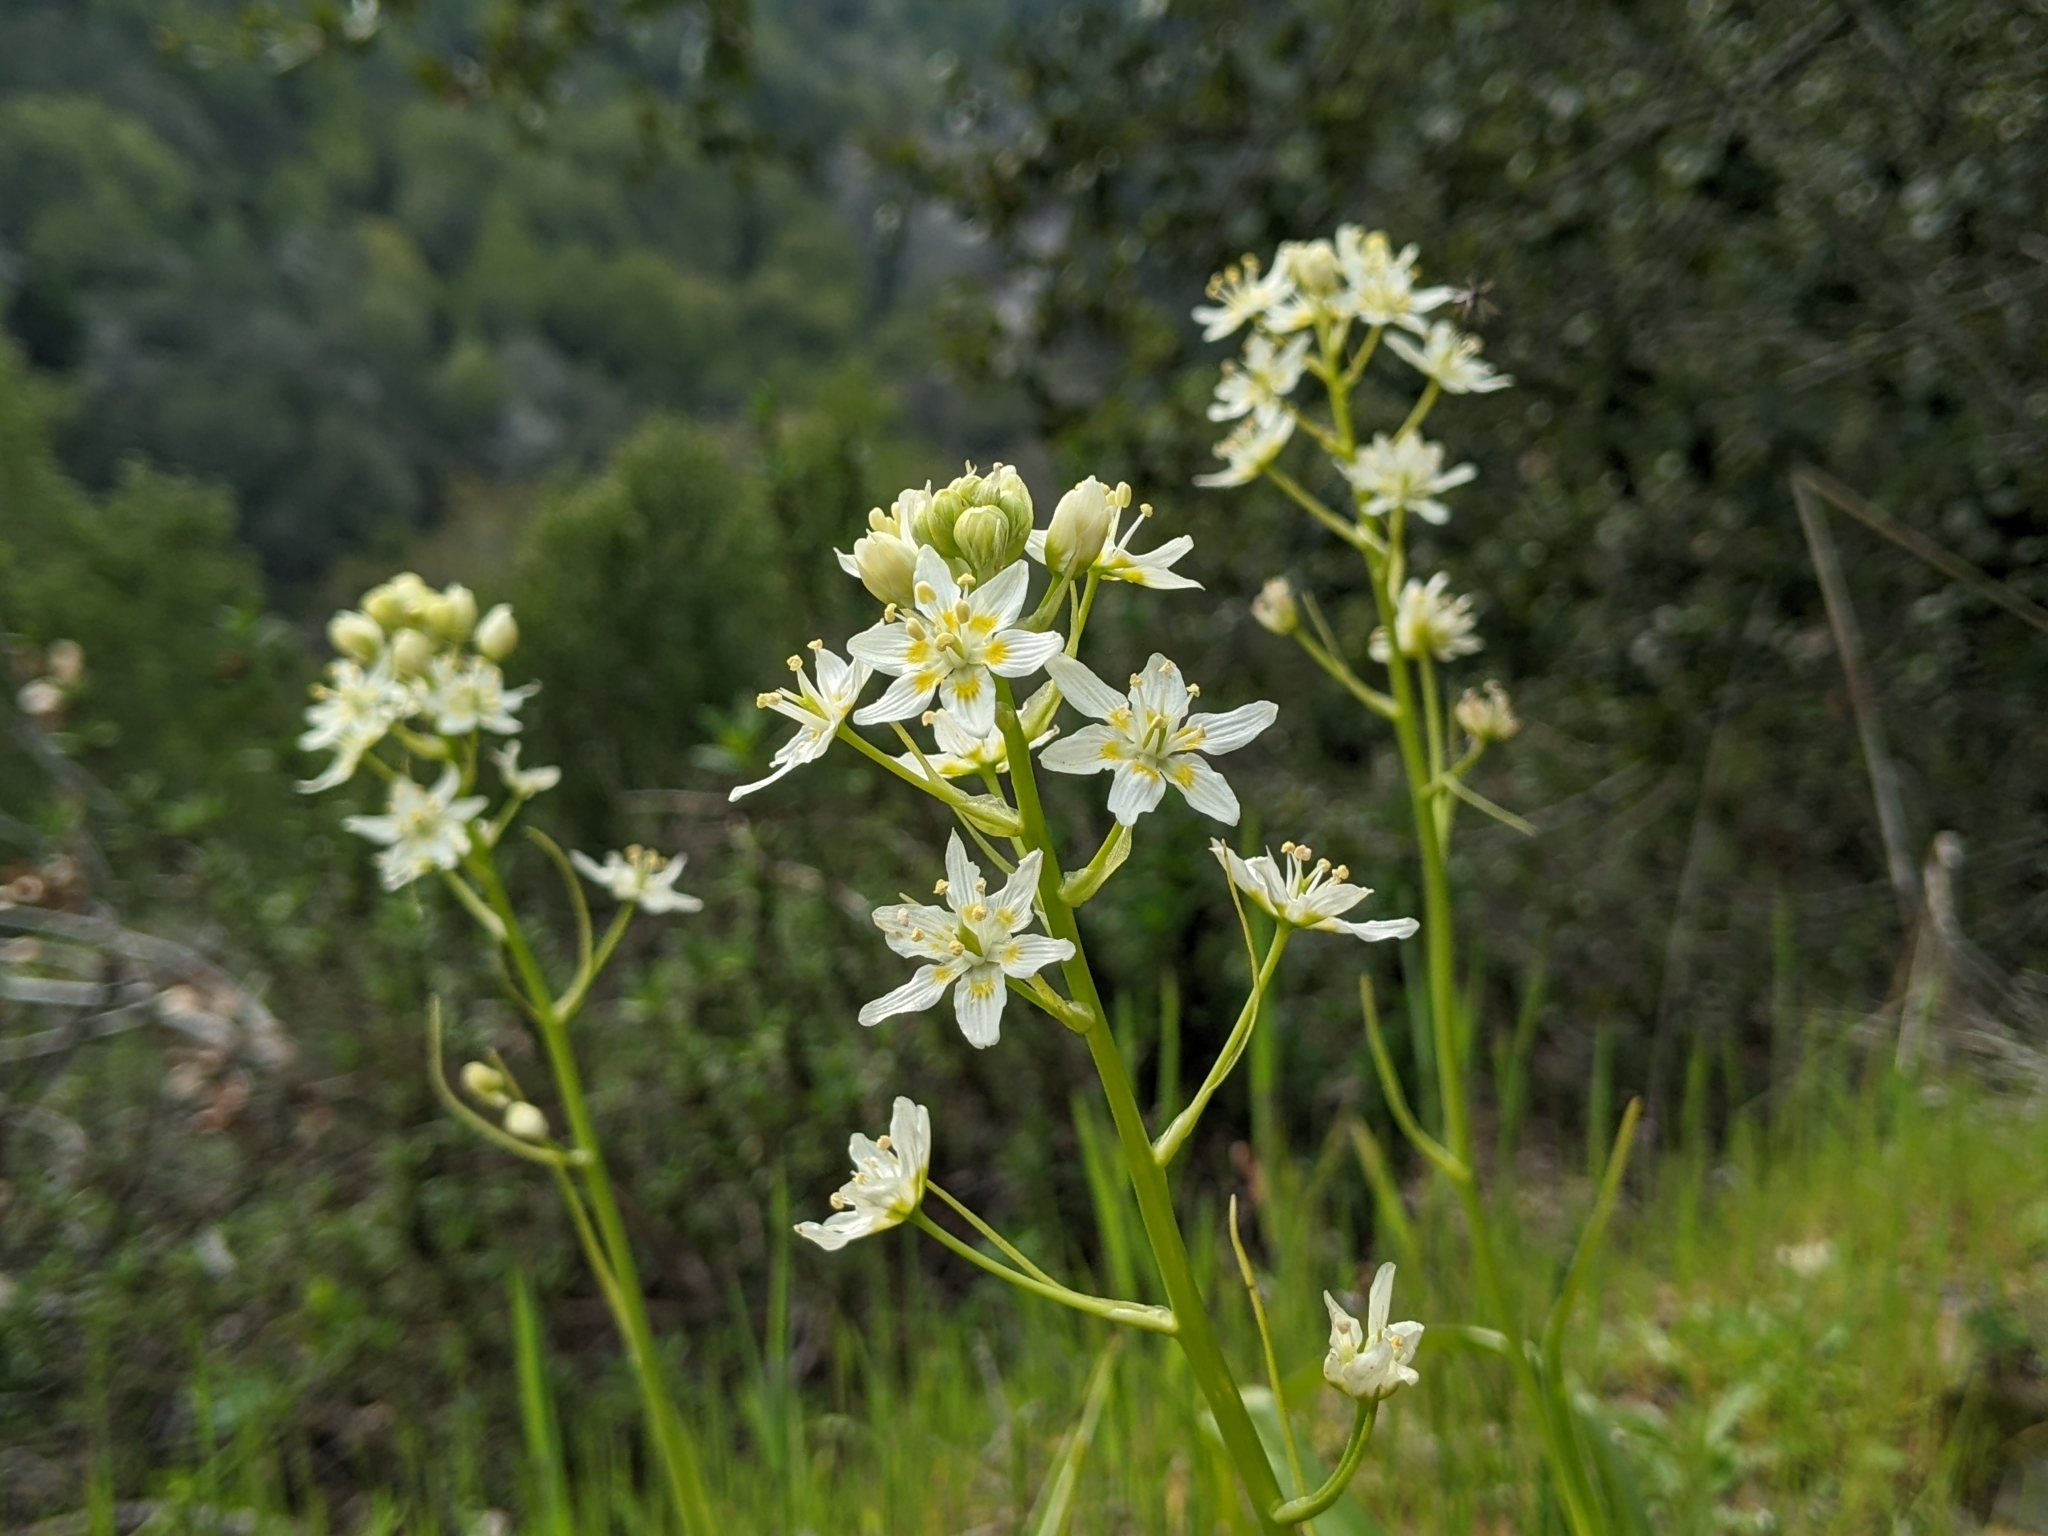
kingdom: Plantae
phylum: Tracheophyta
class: Liliopsida
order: Liliales
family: Melanthiaceae
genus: Toxicoscordion
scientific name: Toxicoscordion fremontii
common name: Fremont's death camas
